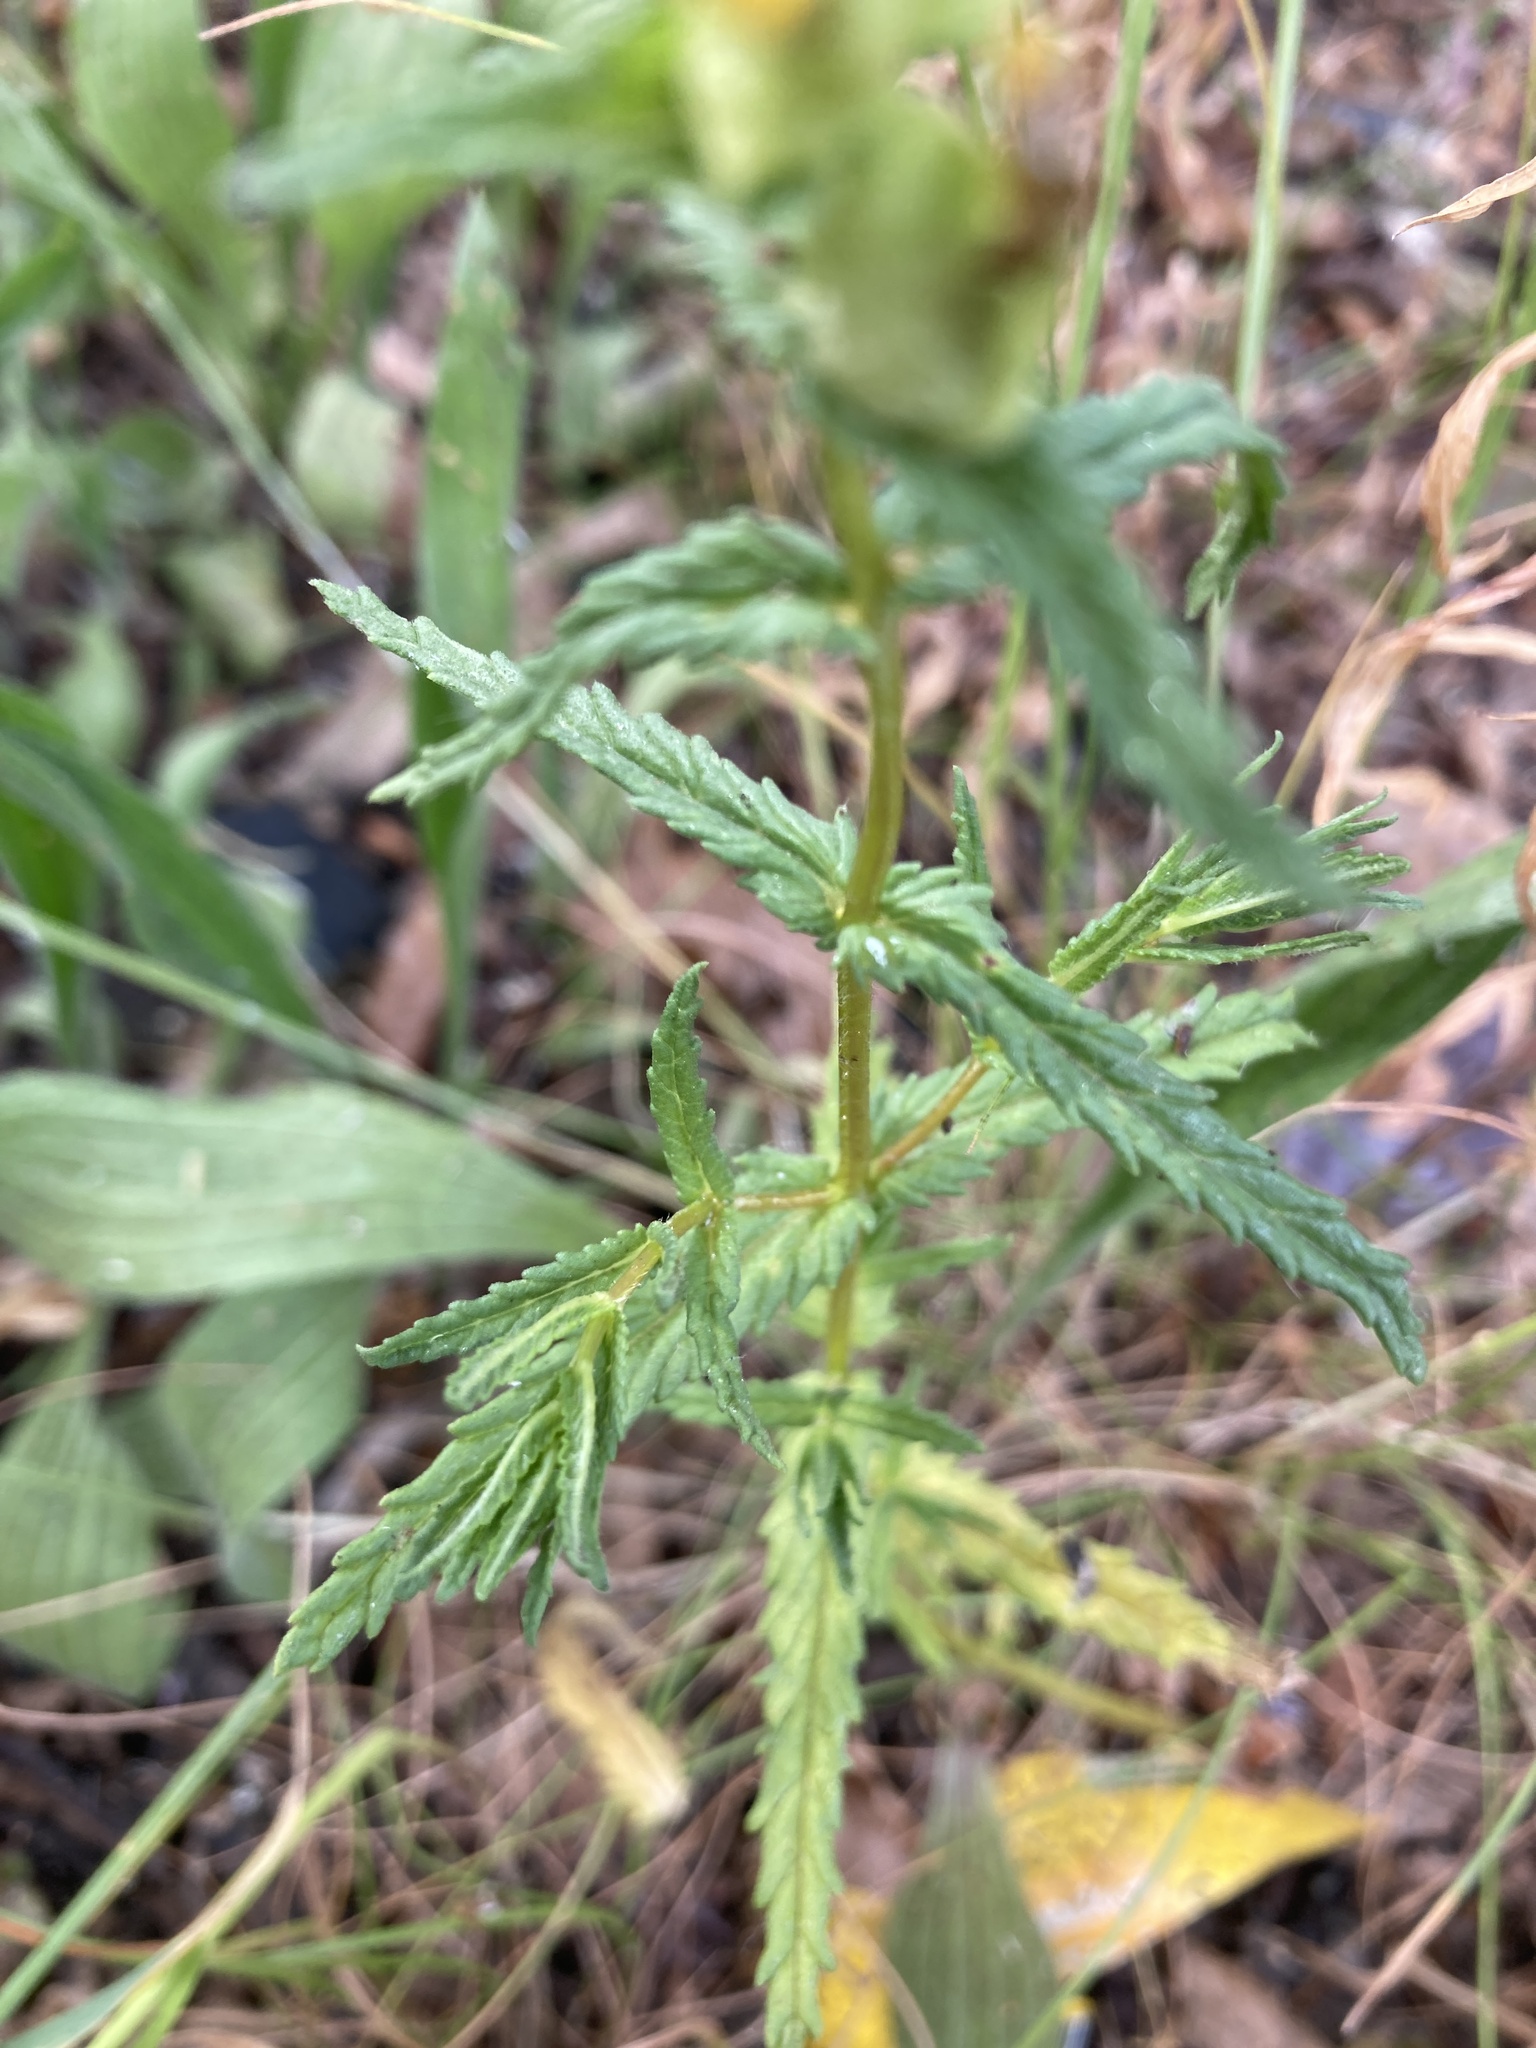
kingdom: Plantae
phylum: Tracheophyta
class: Magnoliopsida
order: Lamiales
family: Orobanchaceae
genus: Rhinanthus
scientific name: Rhinanthus minor
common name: Yellow-rattle
